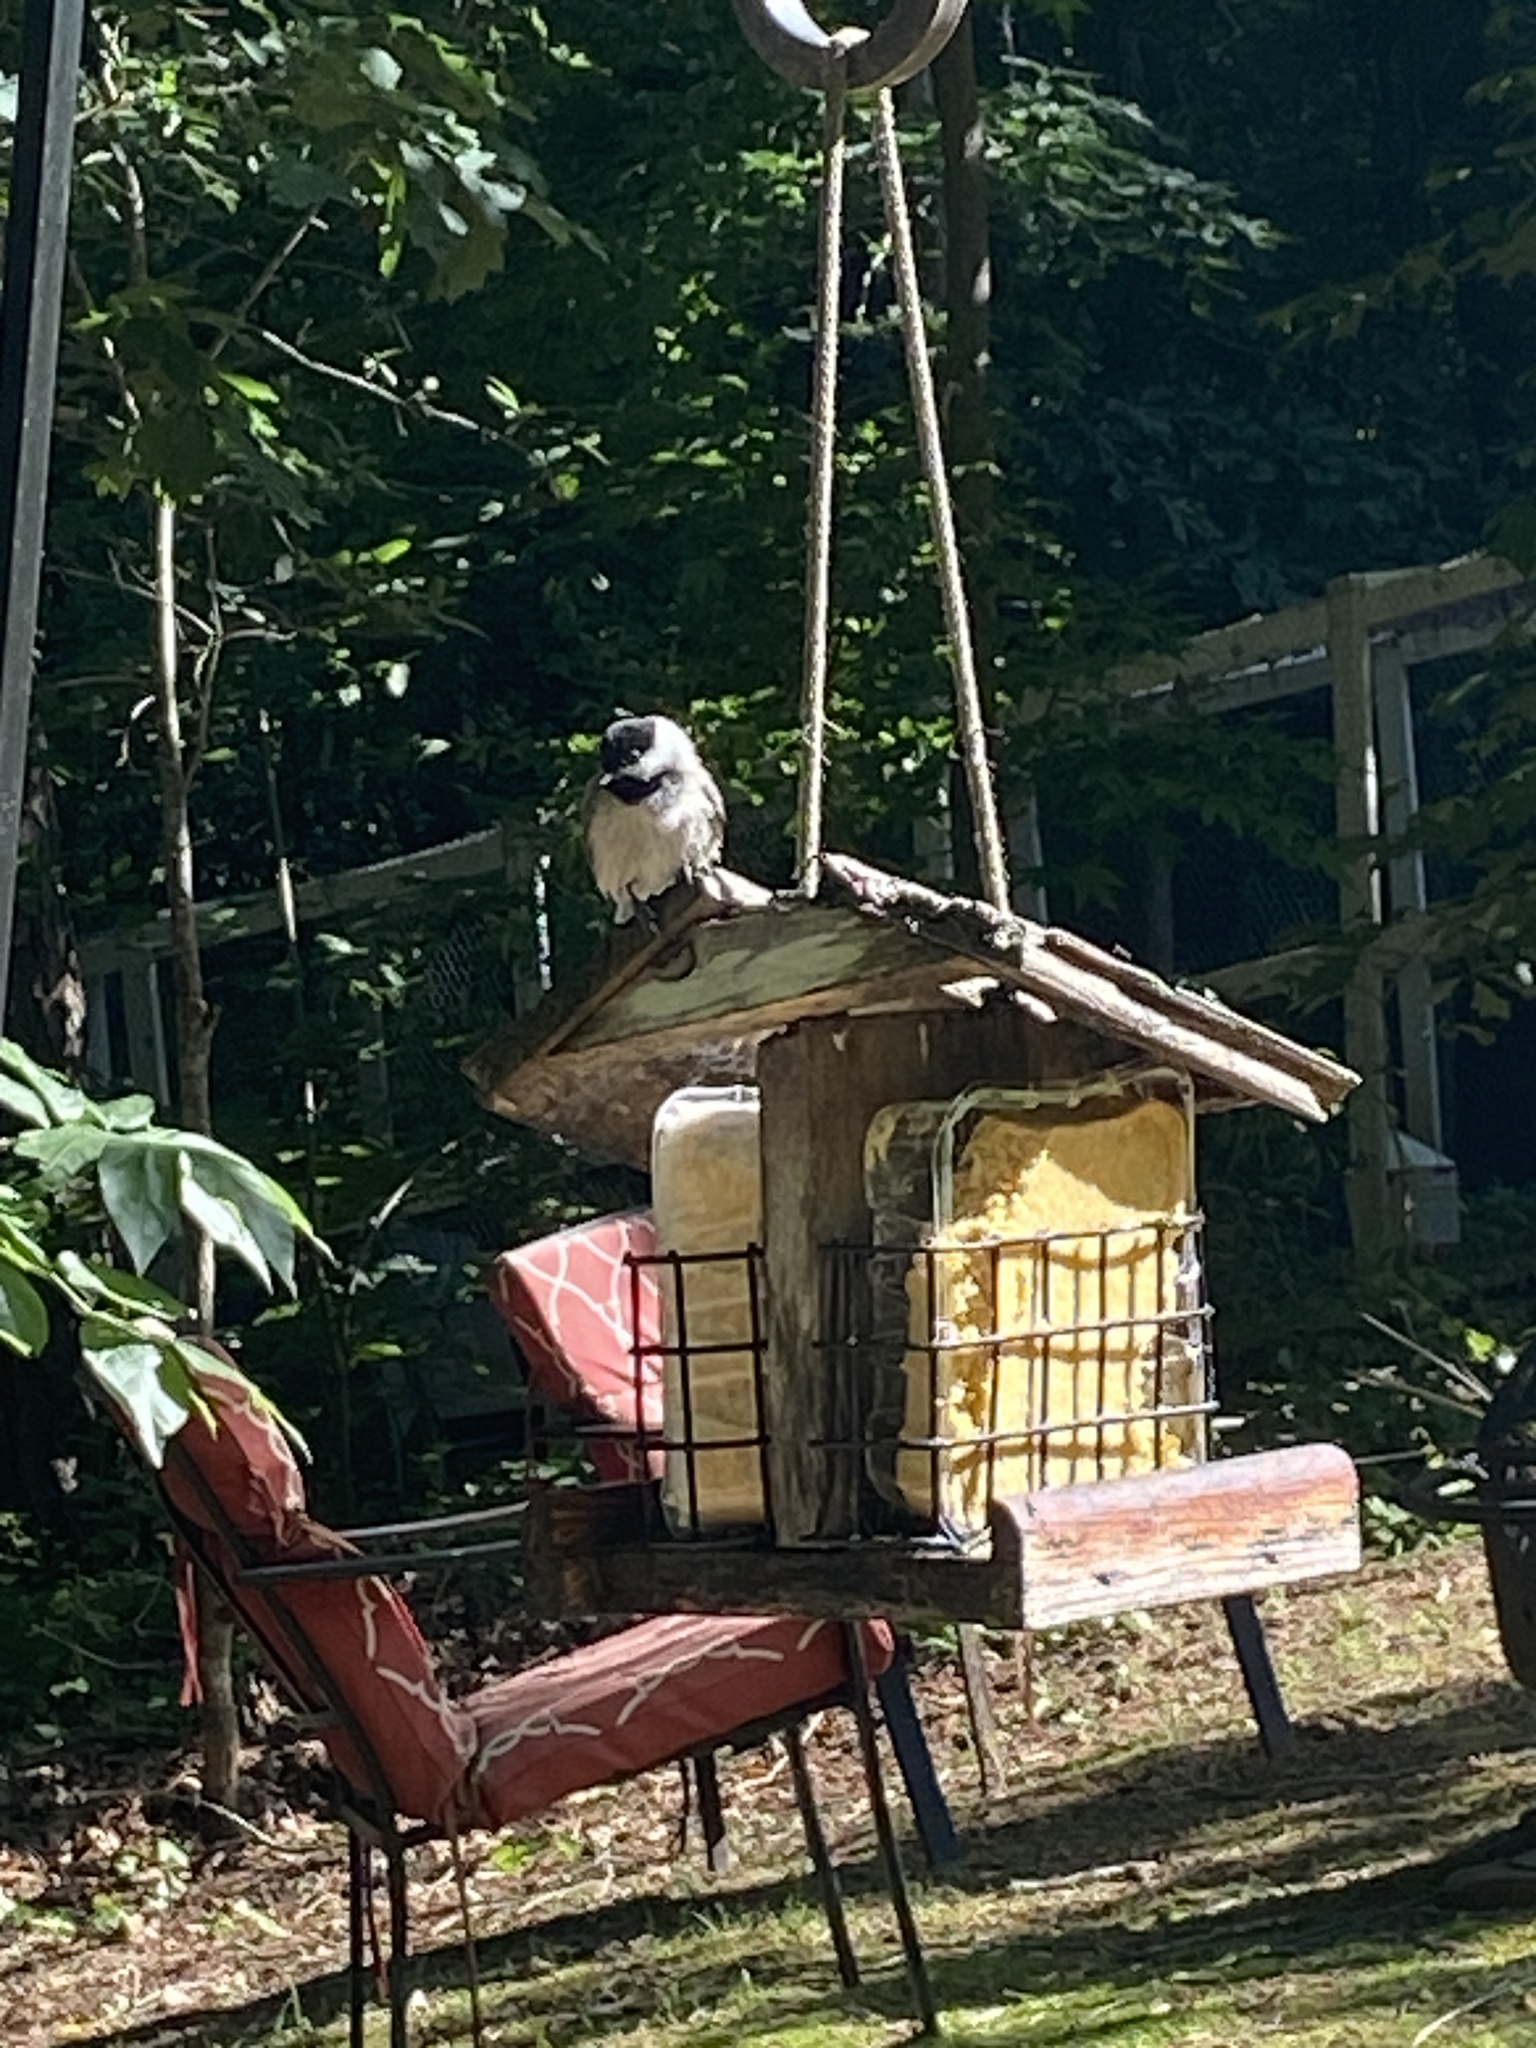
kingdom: Animalia
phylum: Chordata
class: Aves
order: Passeriformes
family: Paridae
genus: Poecile
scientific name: Poecile carolinensis
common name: Carolina chickadee
